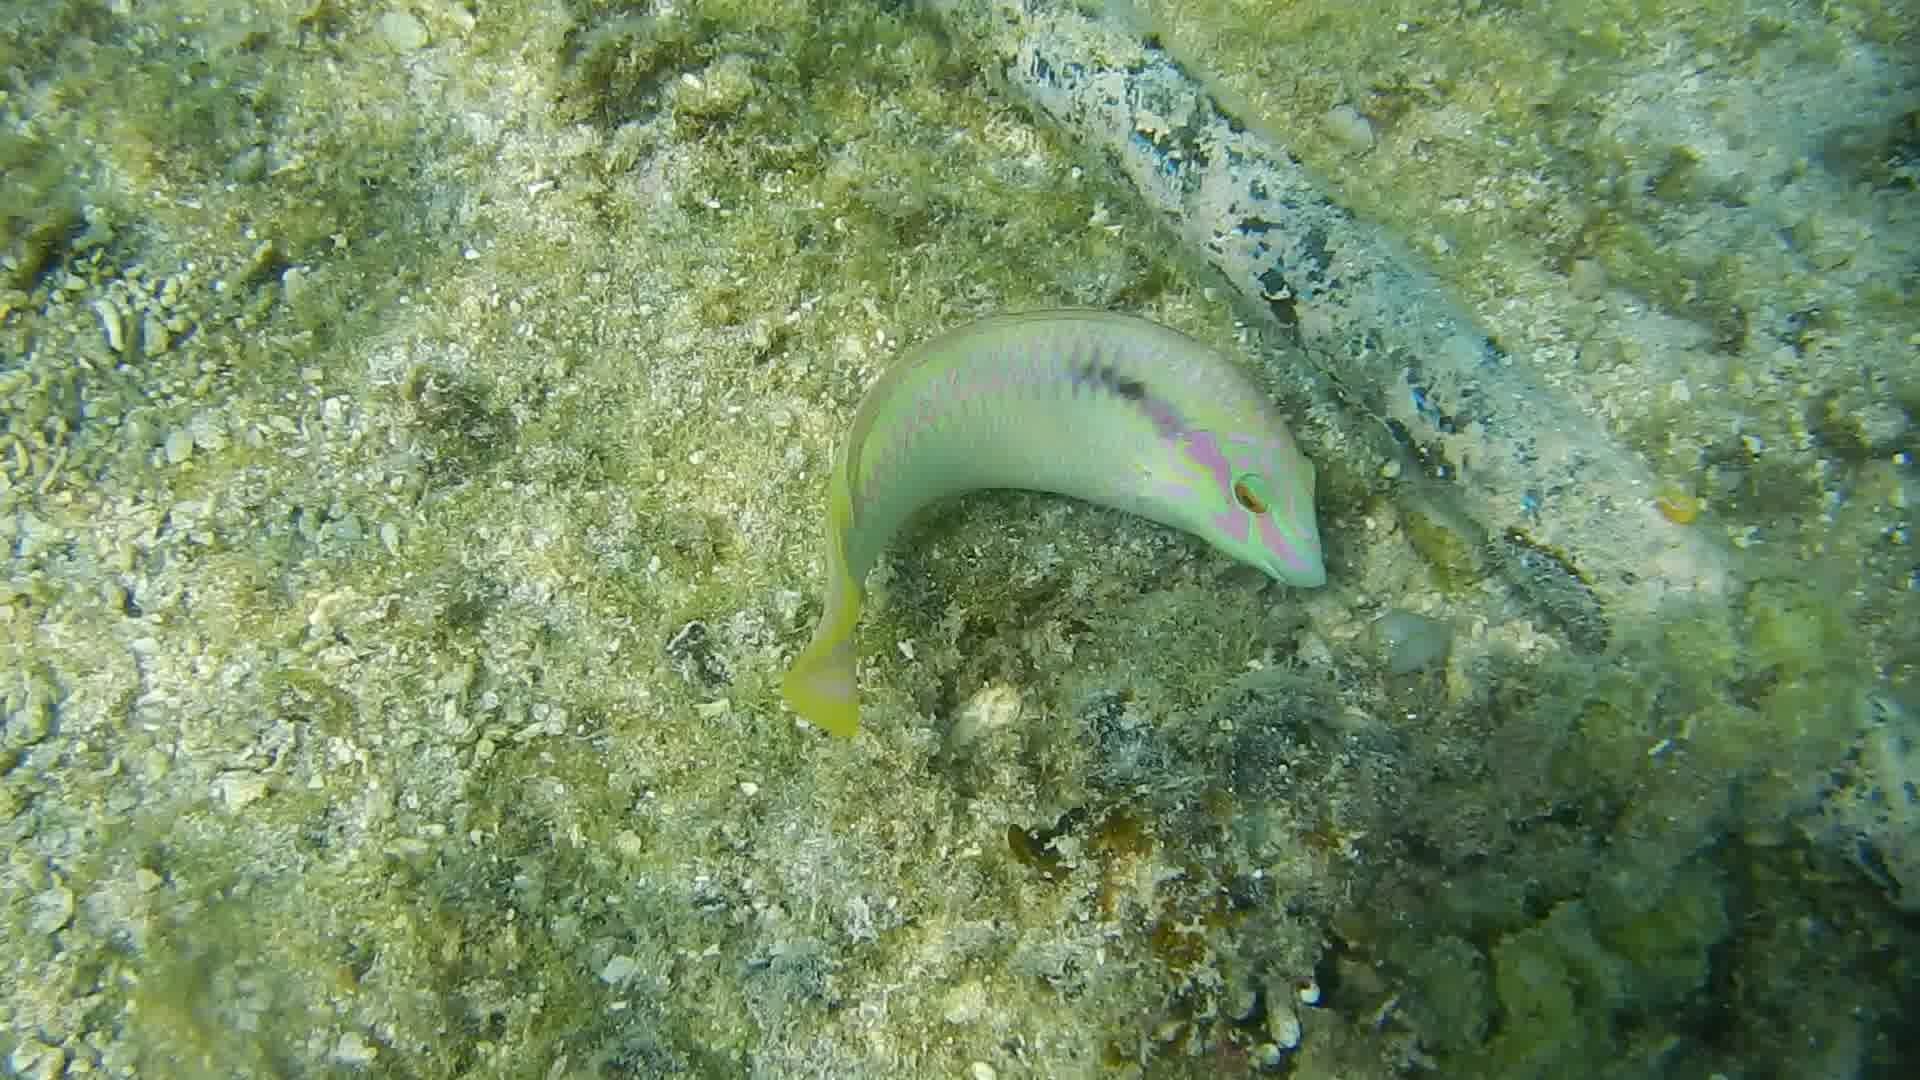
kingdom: Animalia
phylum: Chordata
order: Perciformes
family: Labridae
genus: Halichoeres
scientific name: Halichoeres scapularis
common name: Brownbanded wrasse
